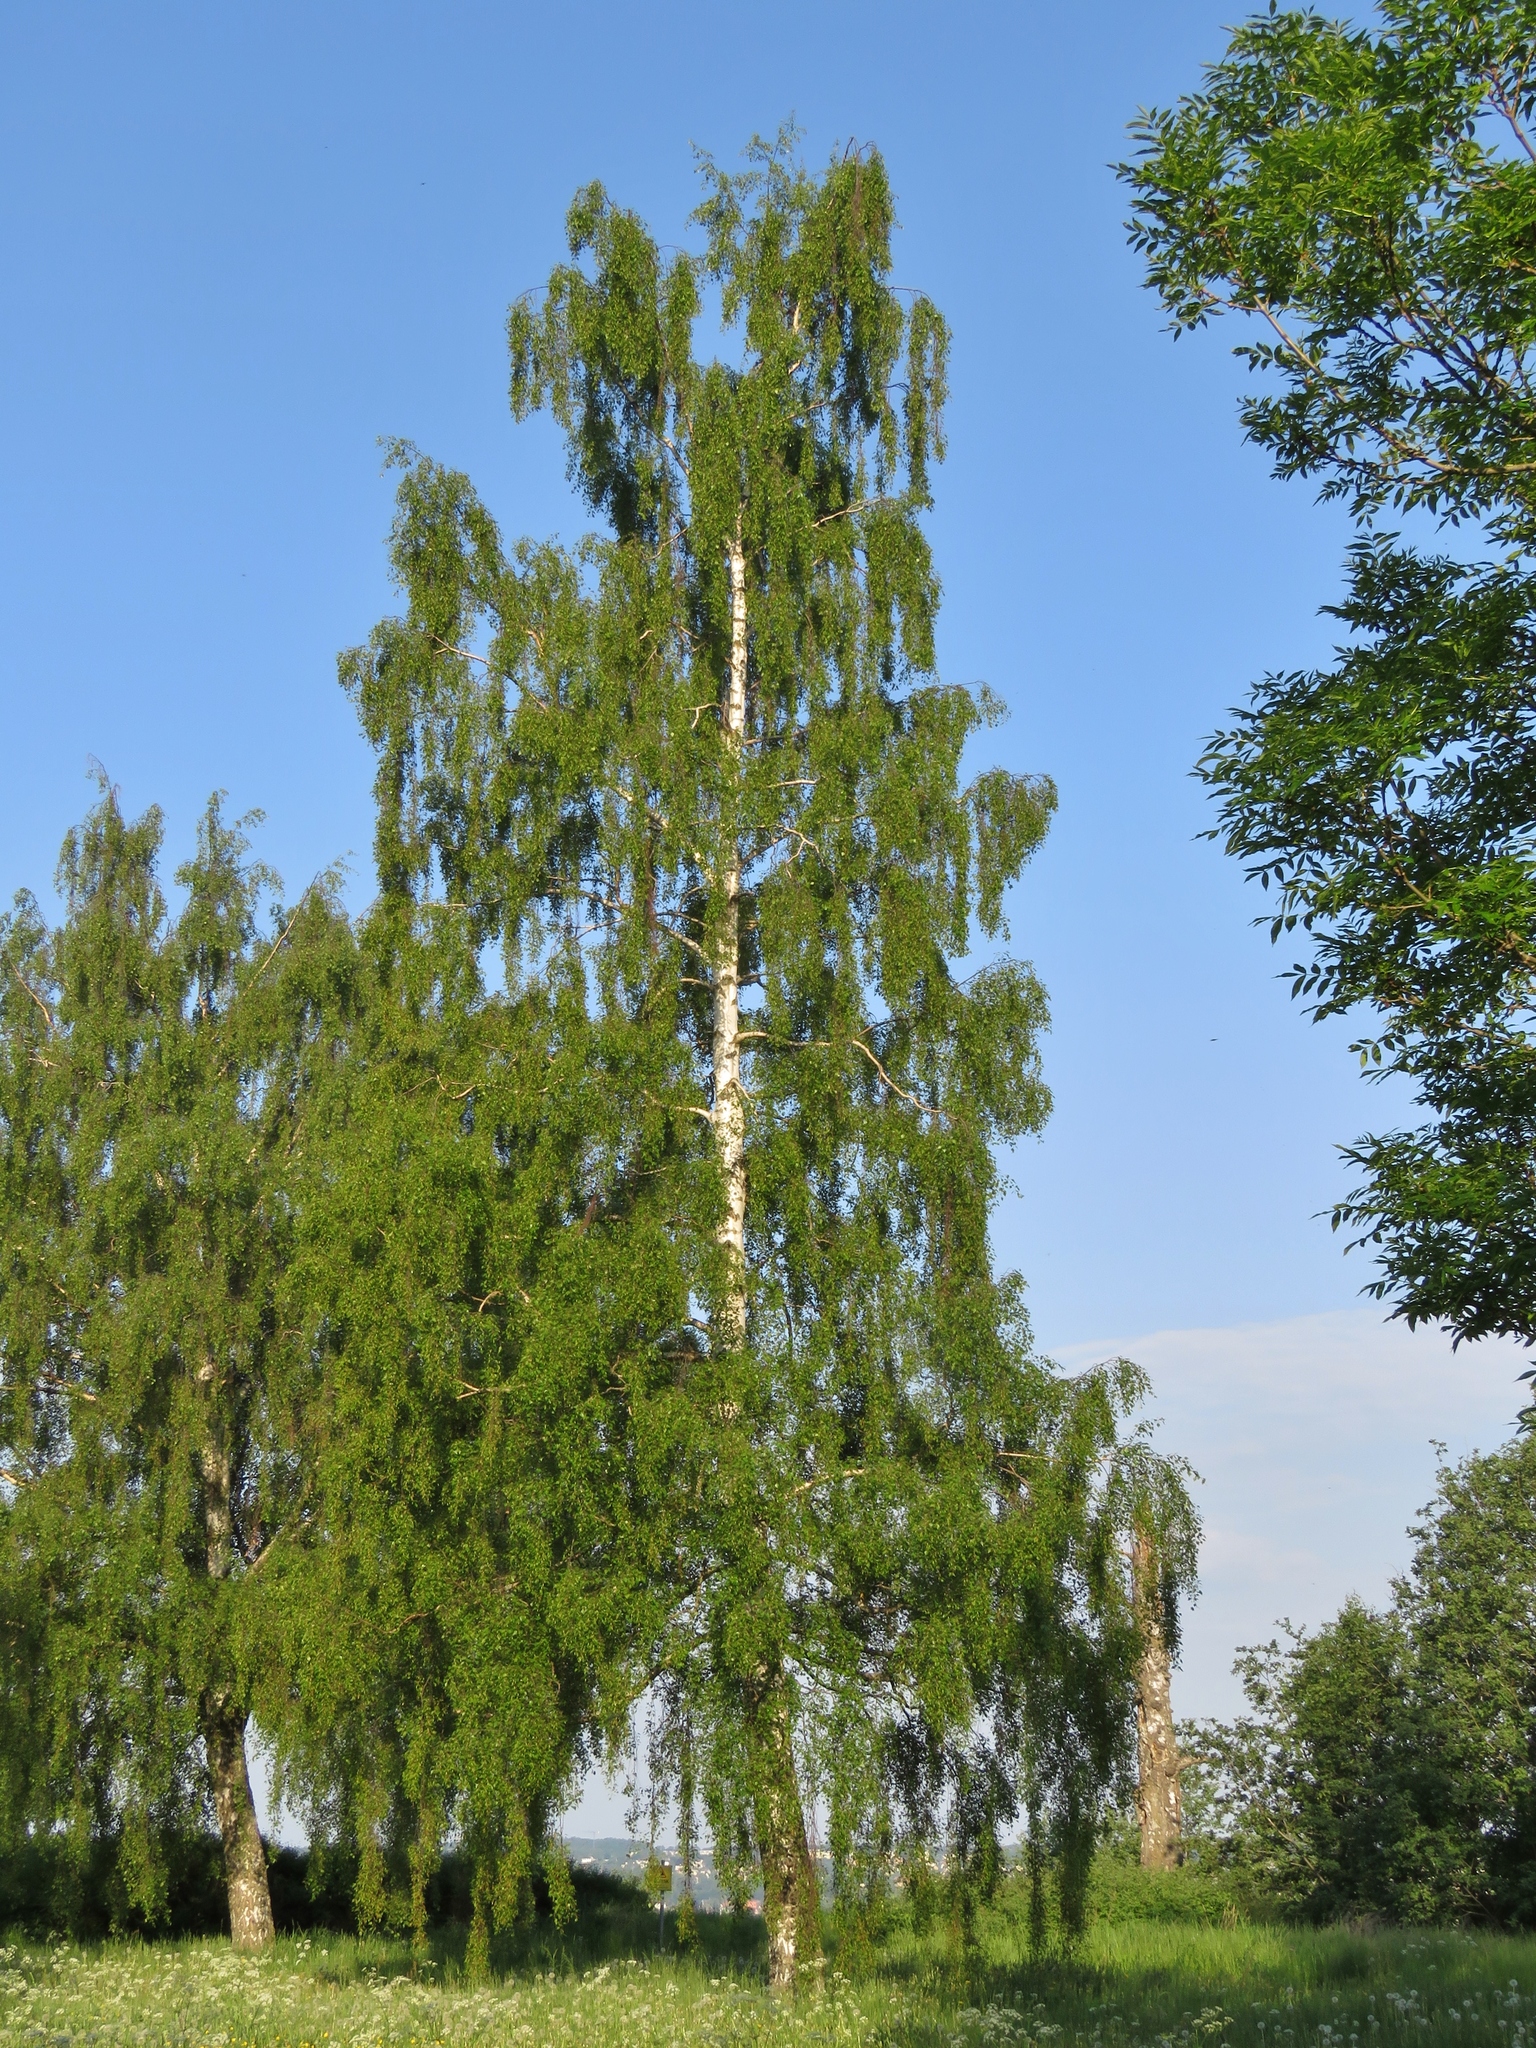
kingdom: Plantae
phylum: Tracheophyta
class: Magnoliopsida
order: Fagales
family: Betulaceae
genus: Betula
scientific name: Betula pendula
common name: Silver birch
